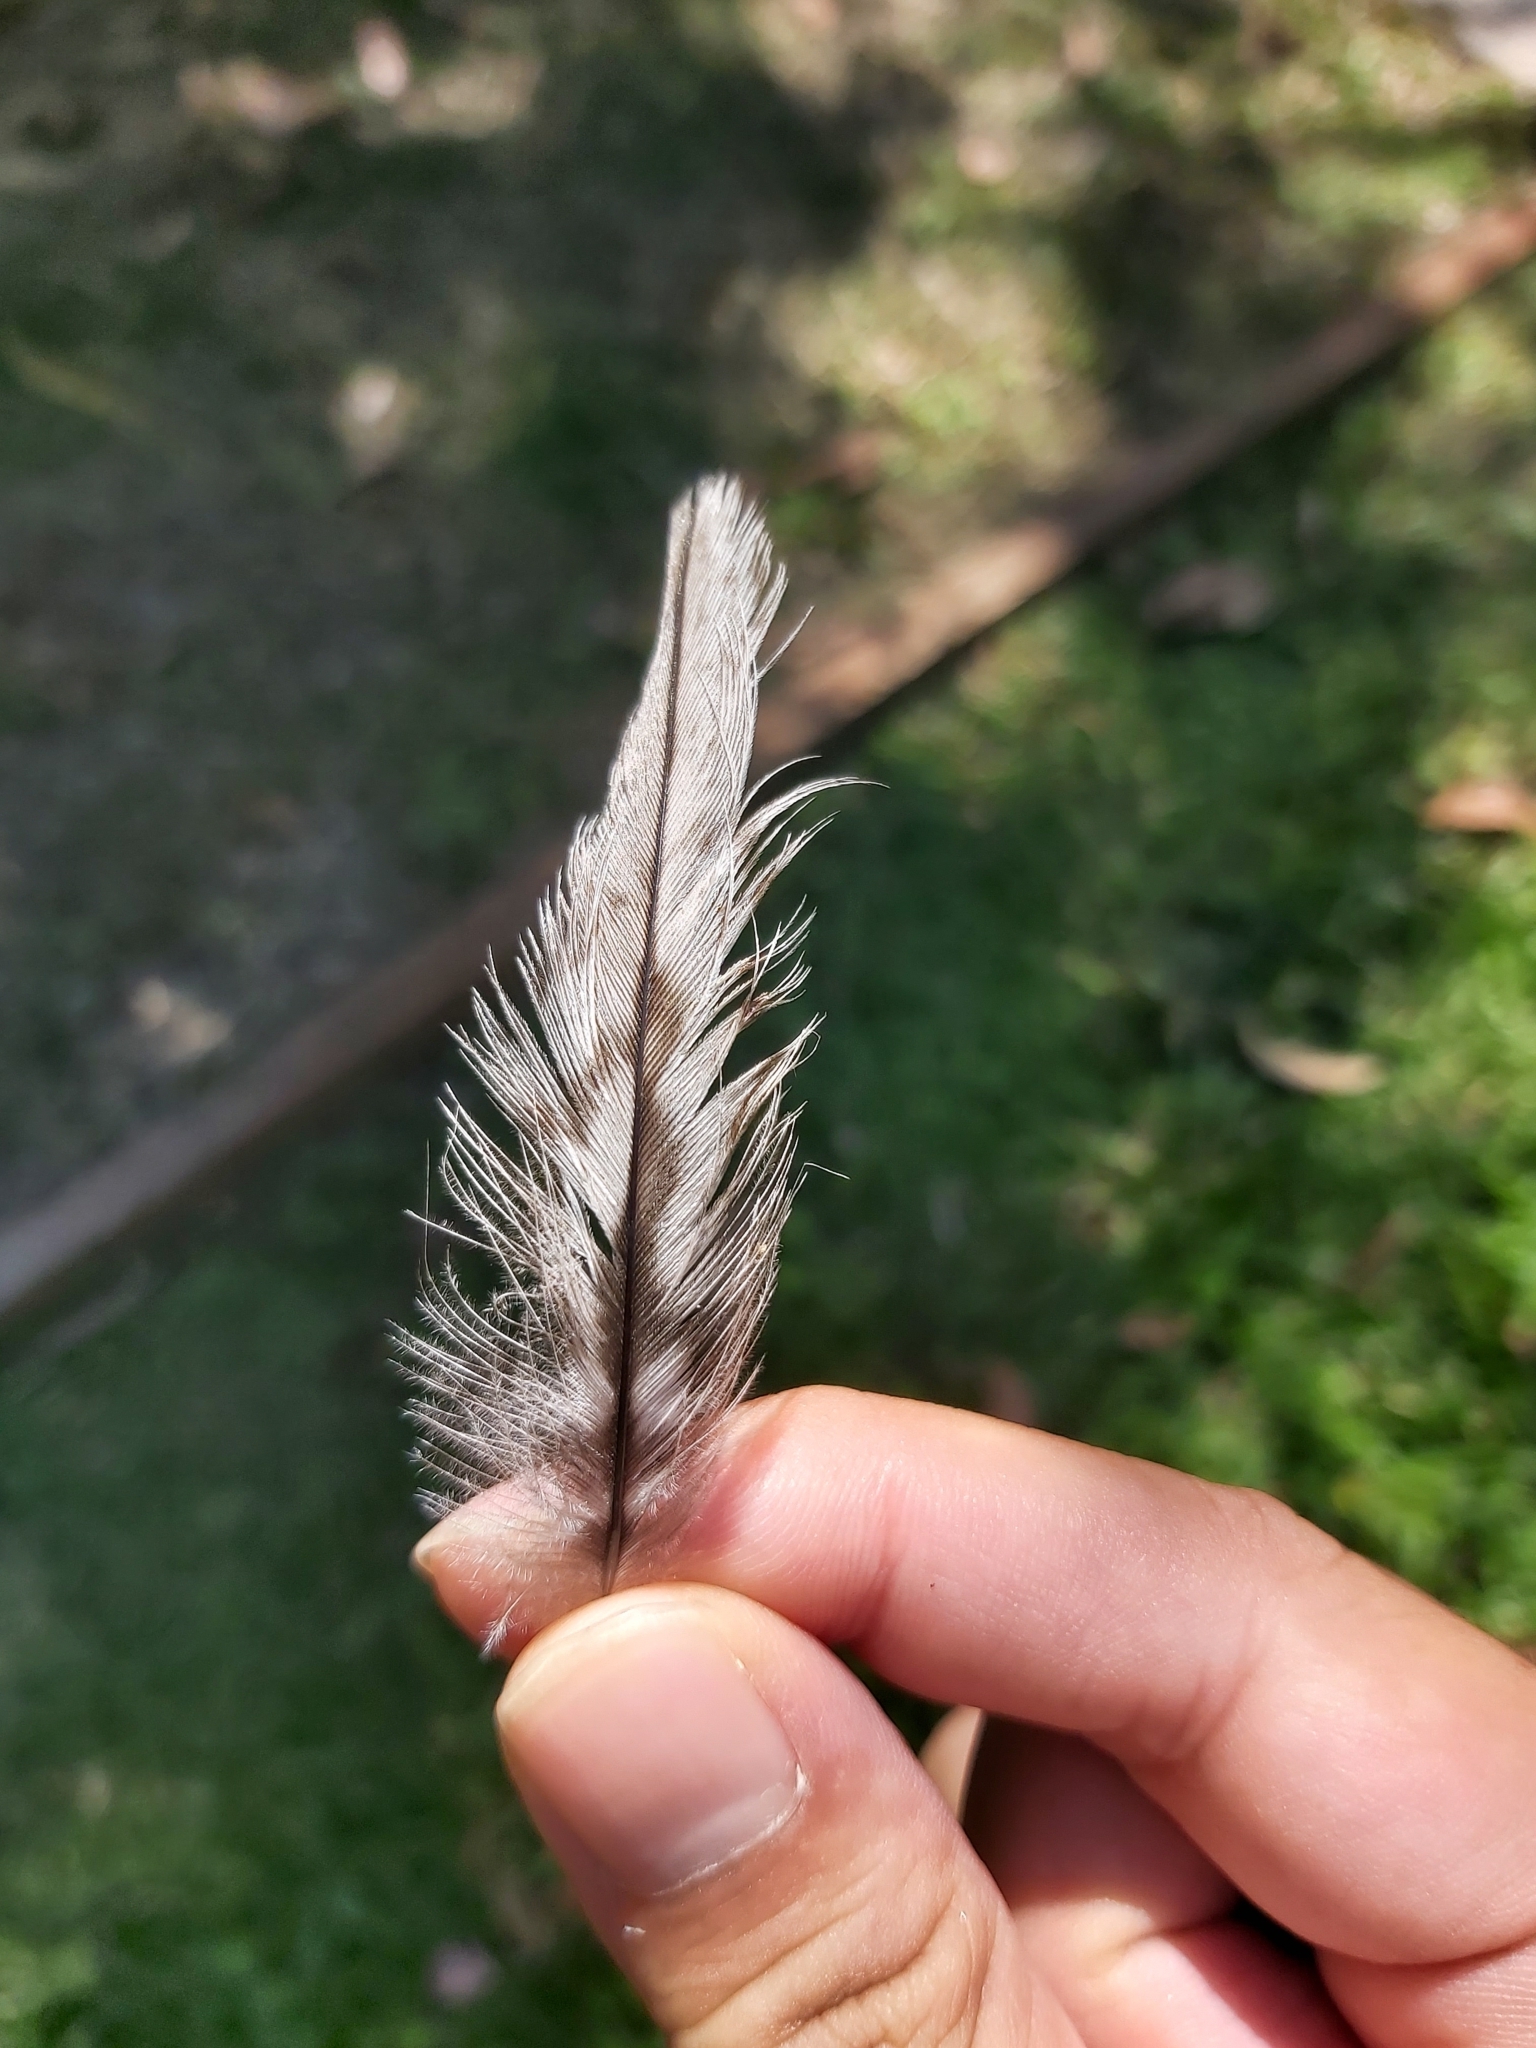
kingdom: Animalia
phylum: Chordata
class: Aves
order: Charadriiformes
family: Burhinidae
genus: Burhinus
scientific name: Burhinus grallarius
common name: Bush stone-curlew
